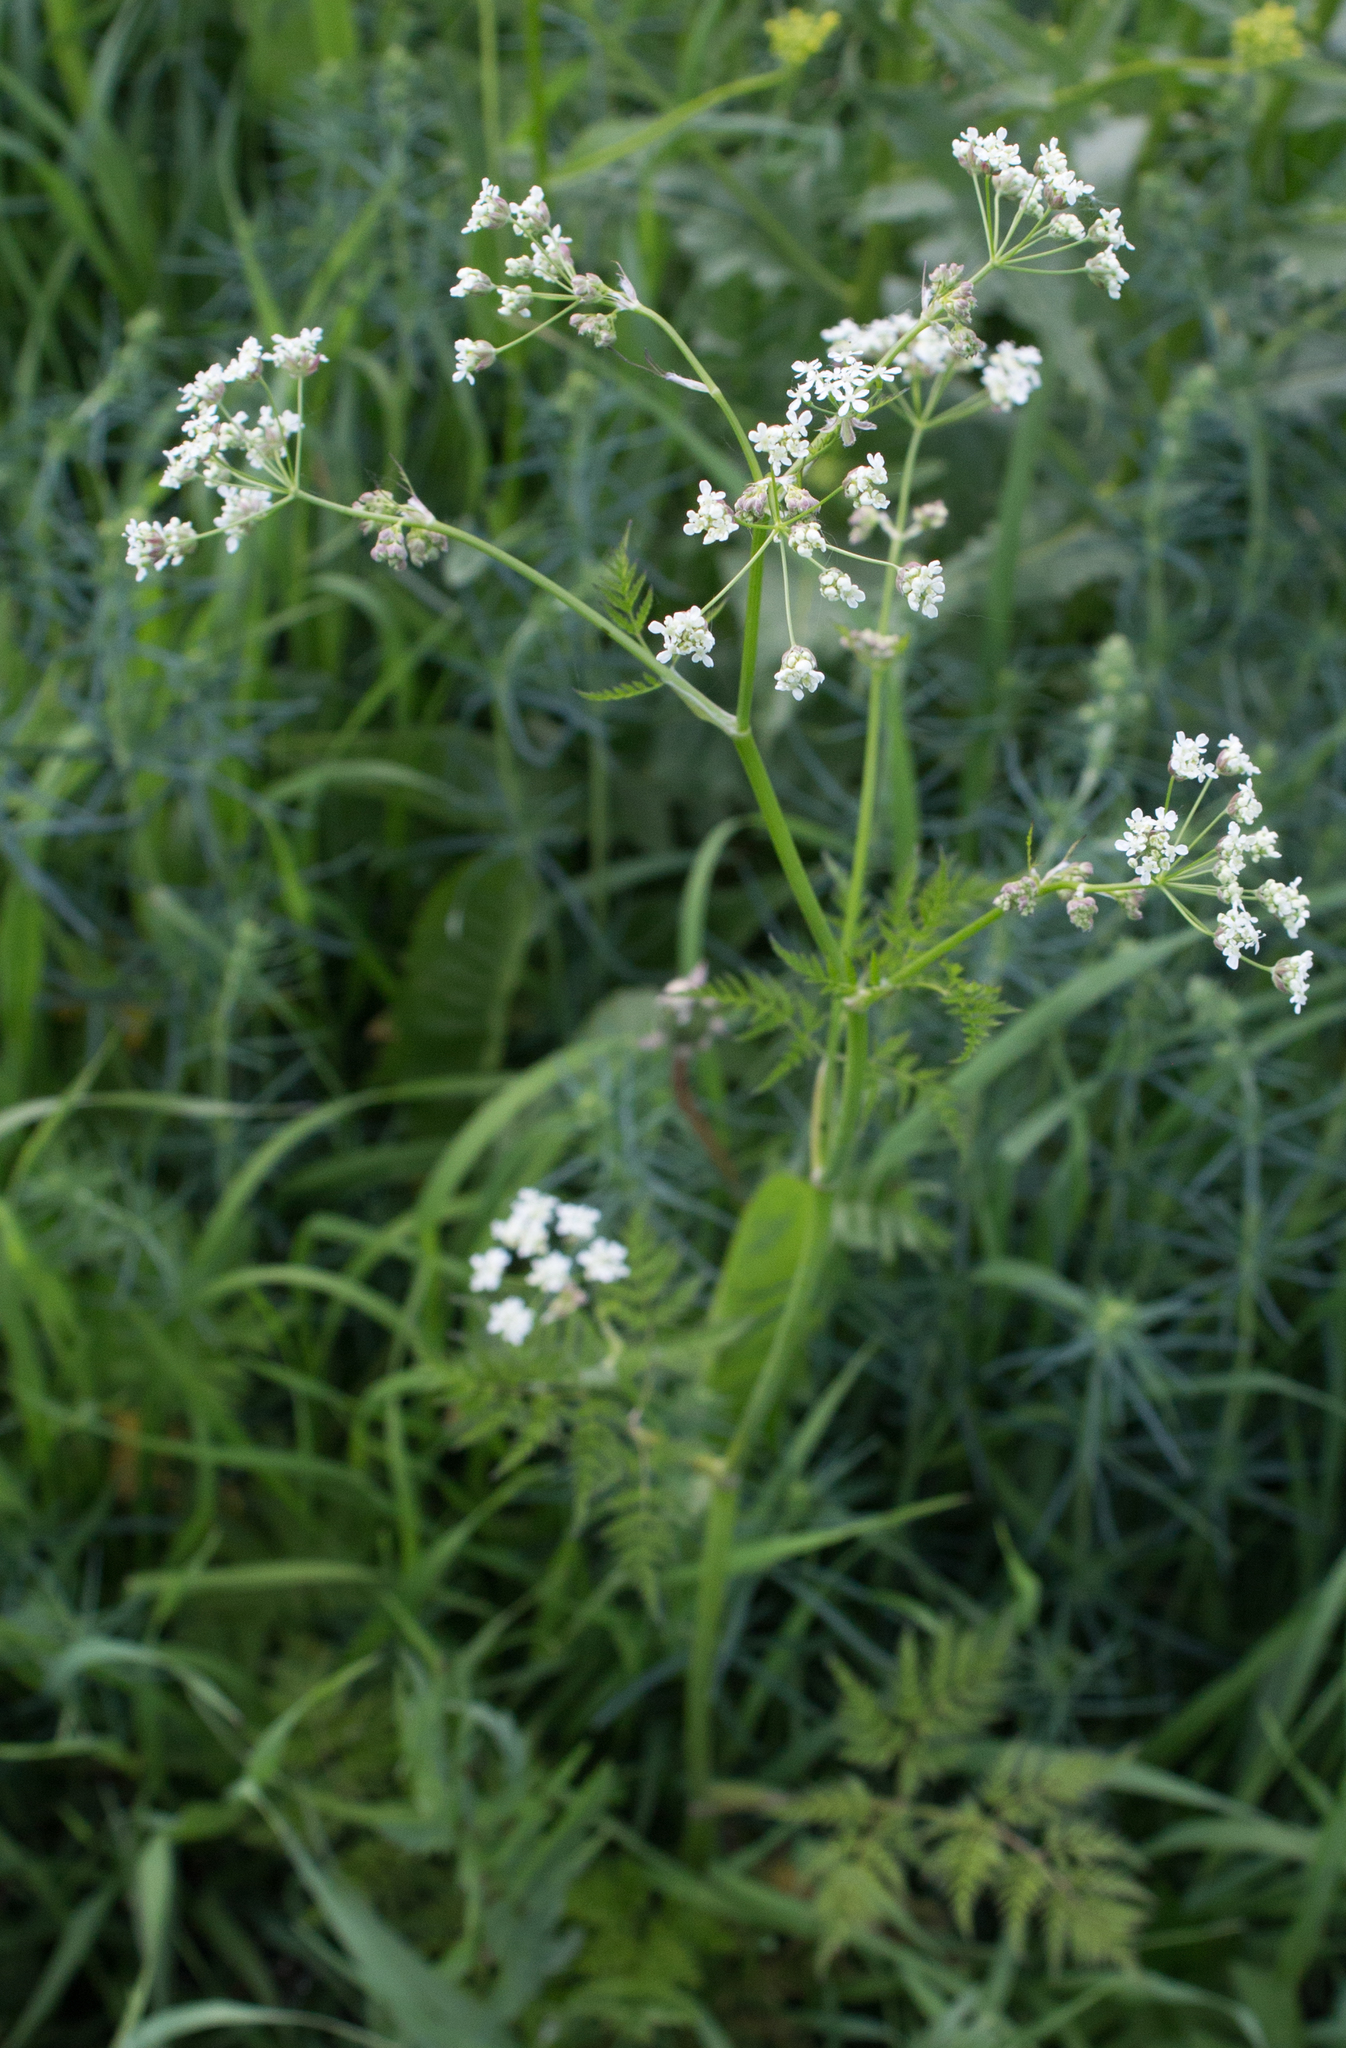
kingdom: Plantae
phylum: Tracheophyta
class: Magnoliopsida
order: Apiales
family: Apiaceae
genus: Anthriscus
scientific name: Anthriscus sylvestris
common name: Cow parsley
